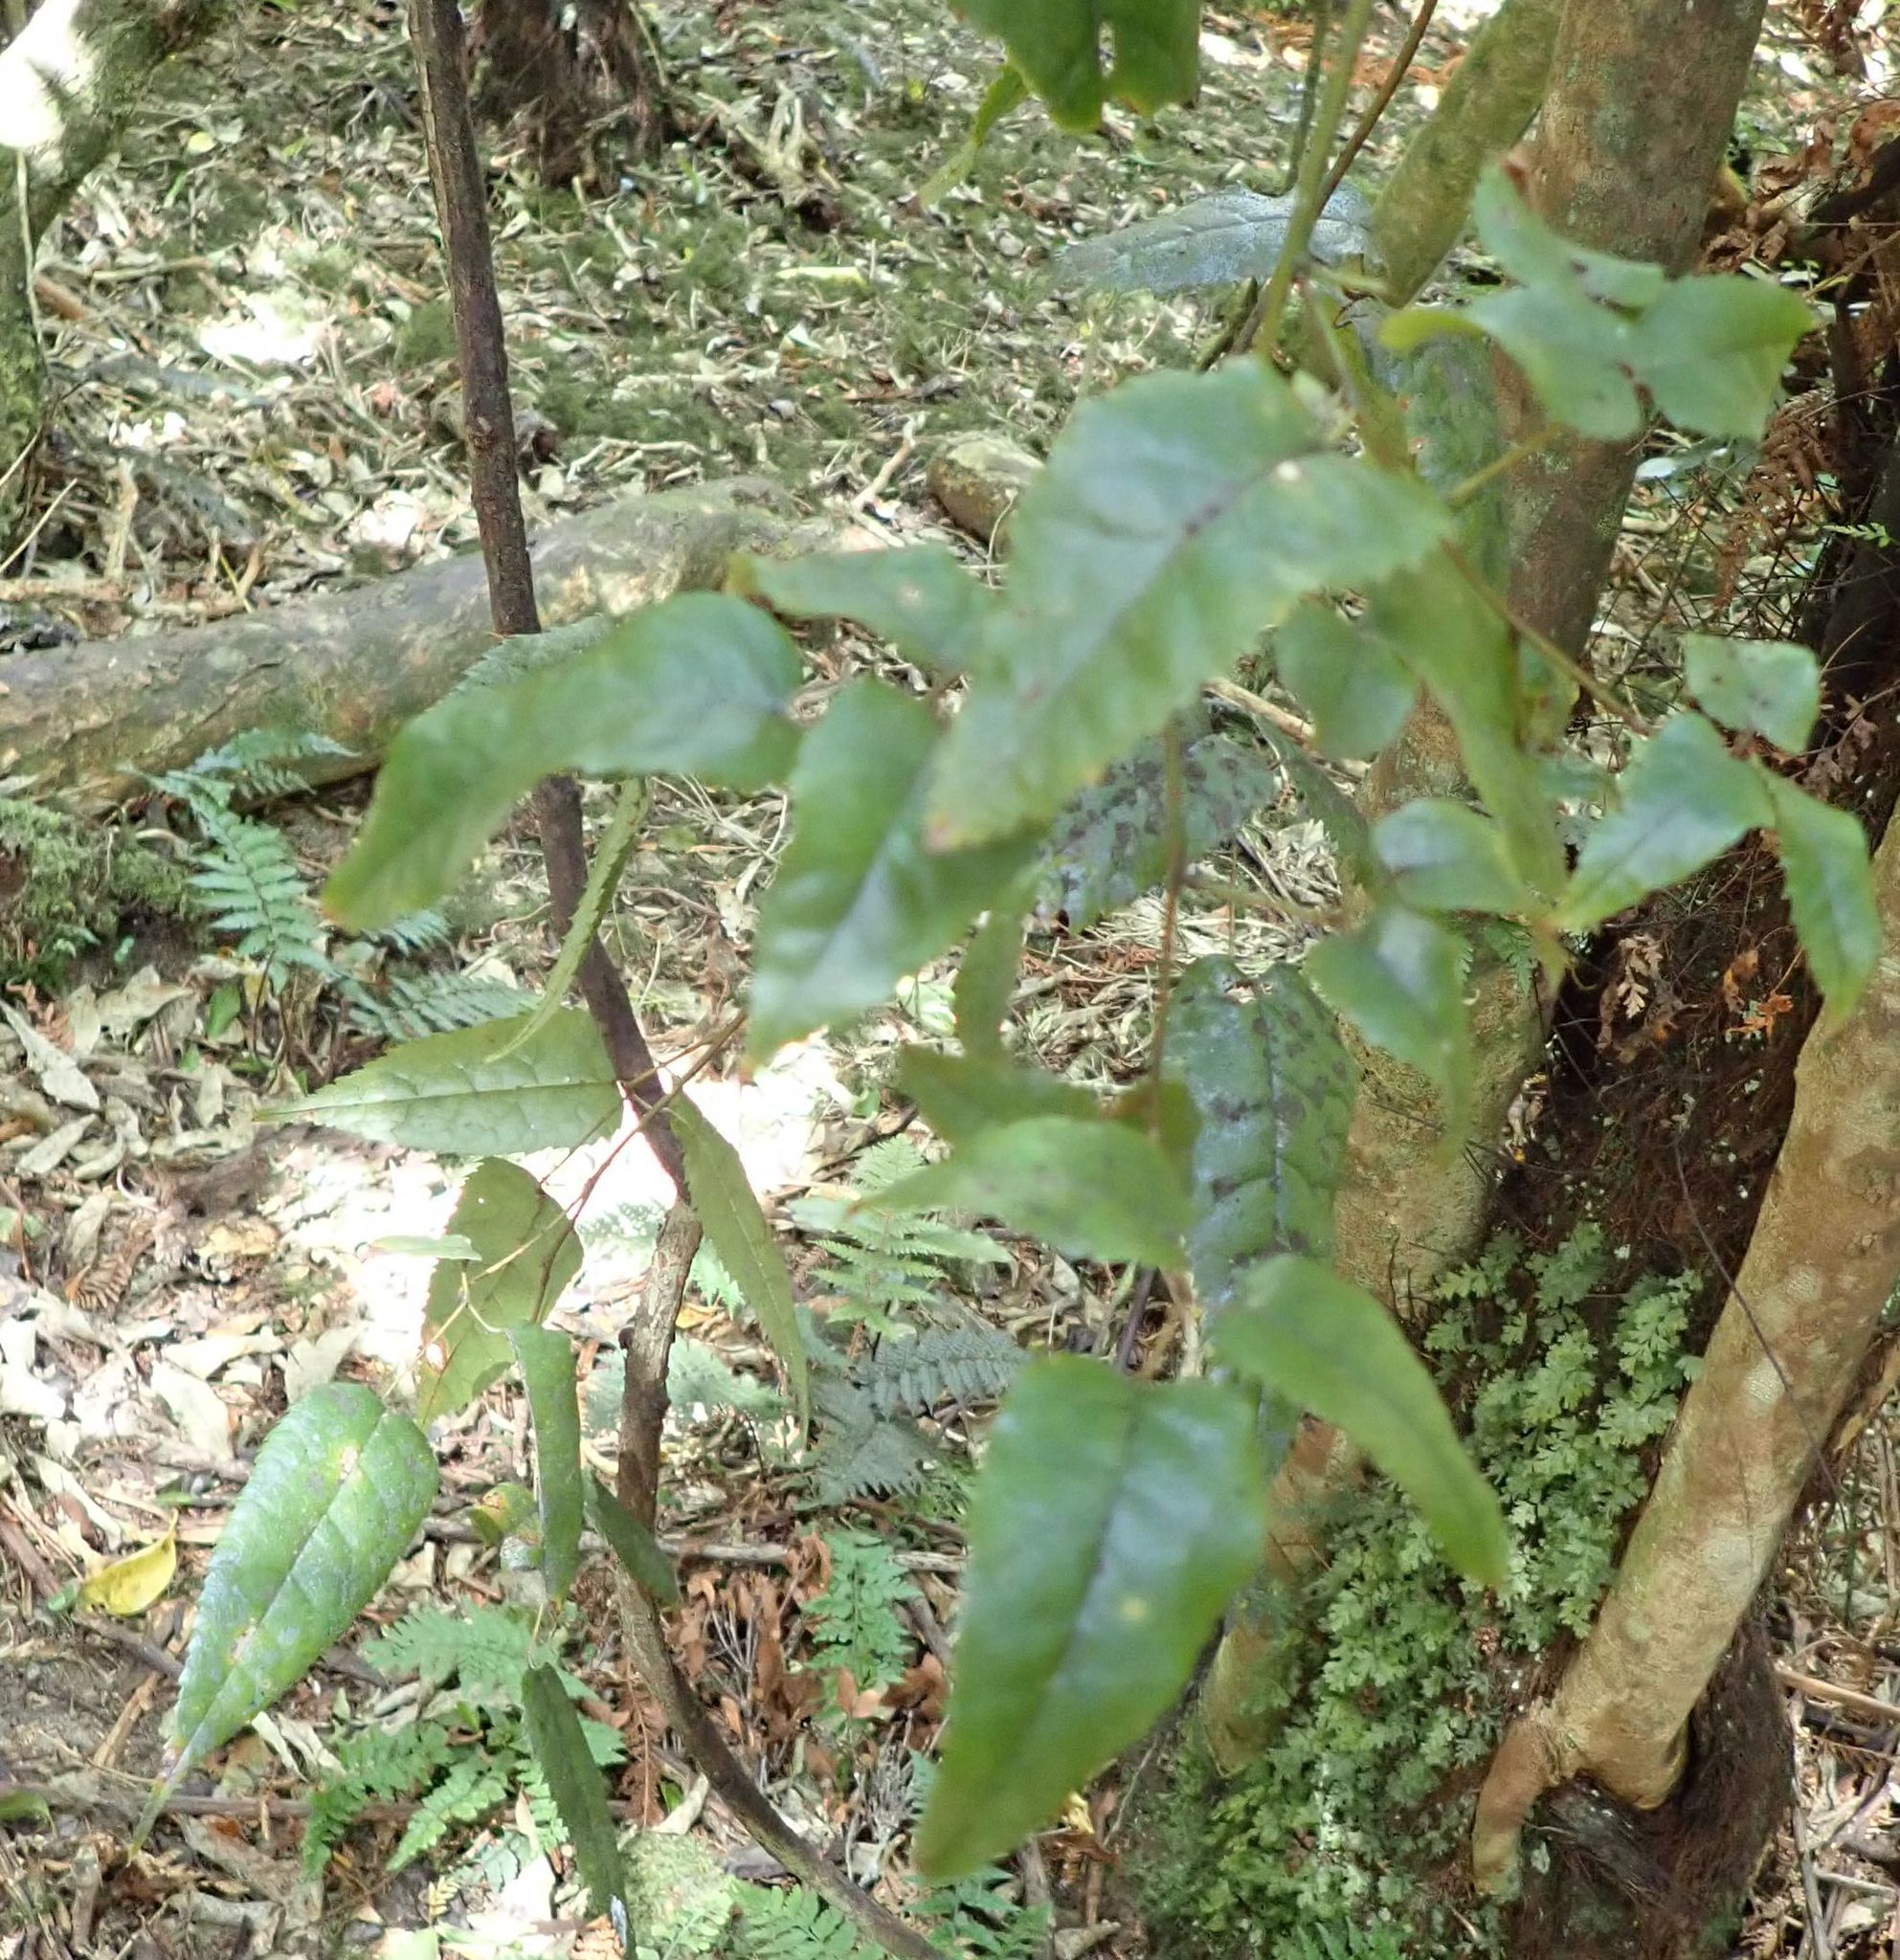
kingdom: Plantae
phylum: Tracheophyta
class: Magnoliopsida
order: Rosales
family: Rosaceae
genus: Rubus
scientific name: Rubus cissoides
